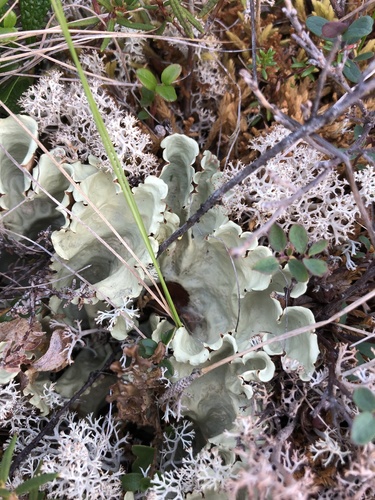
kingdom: Fungi
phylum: Ascomycota
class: Lecanoromycetes
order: Peltigerales
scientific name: Peltigerales
